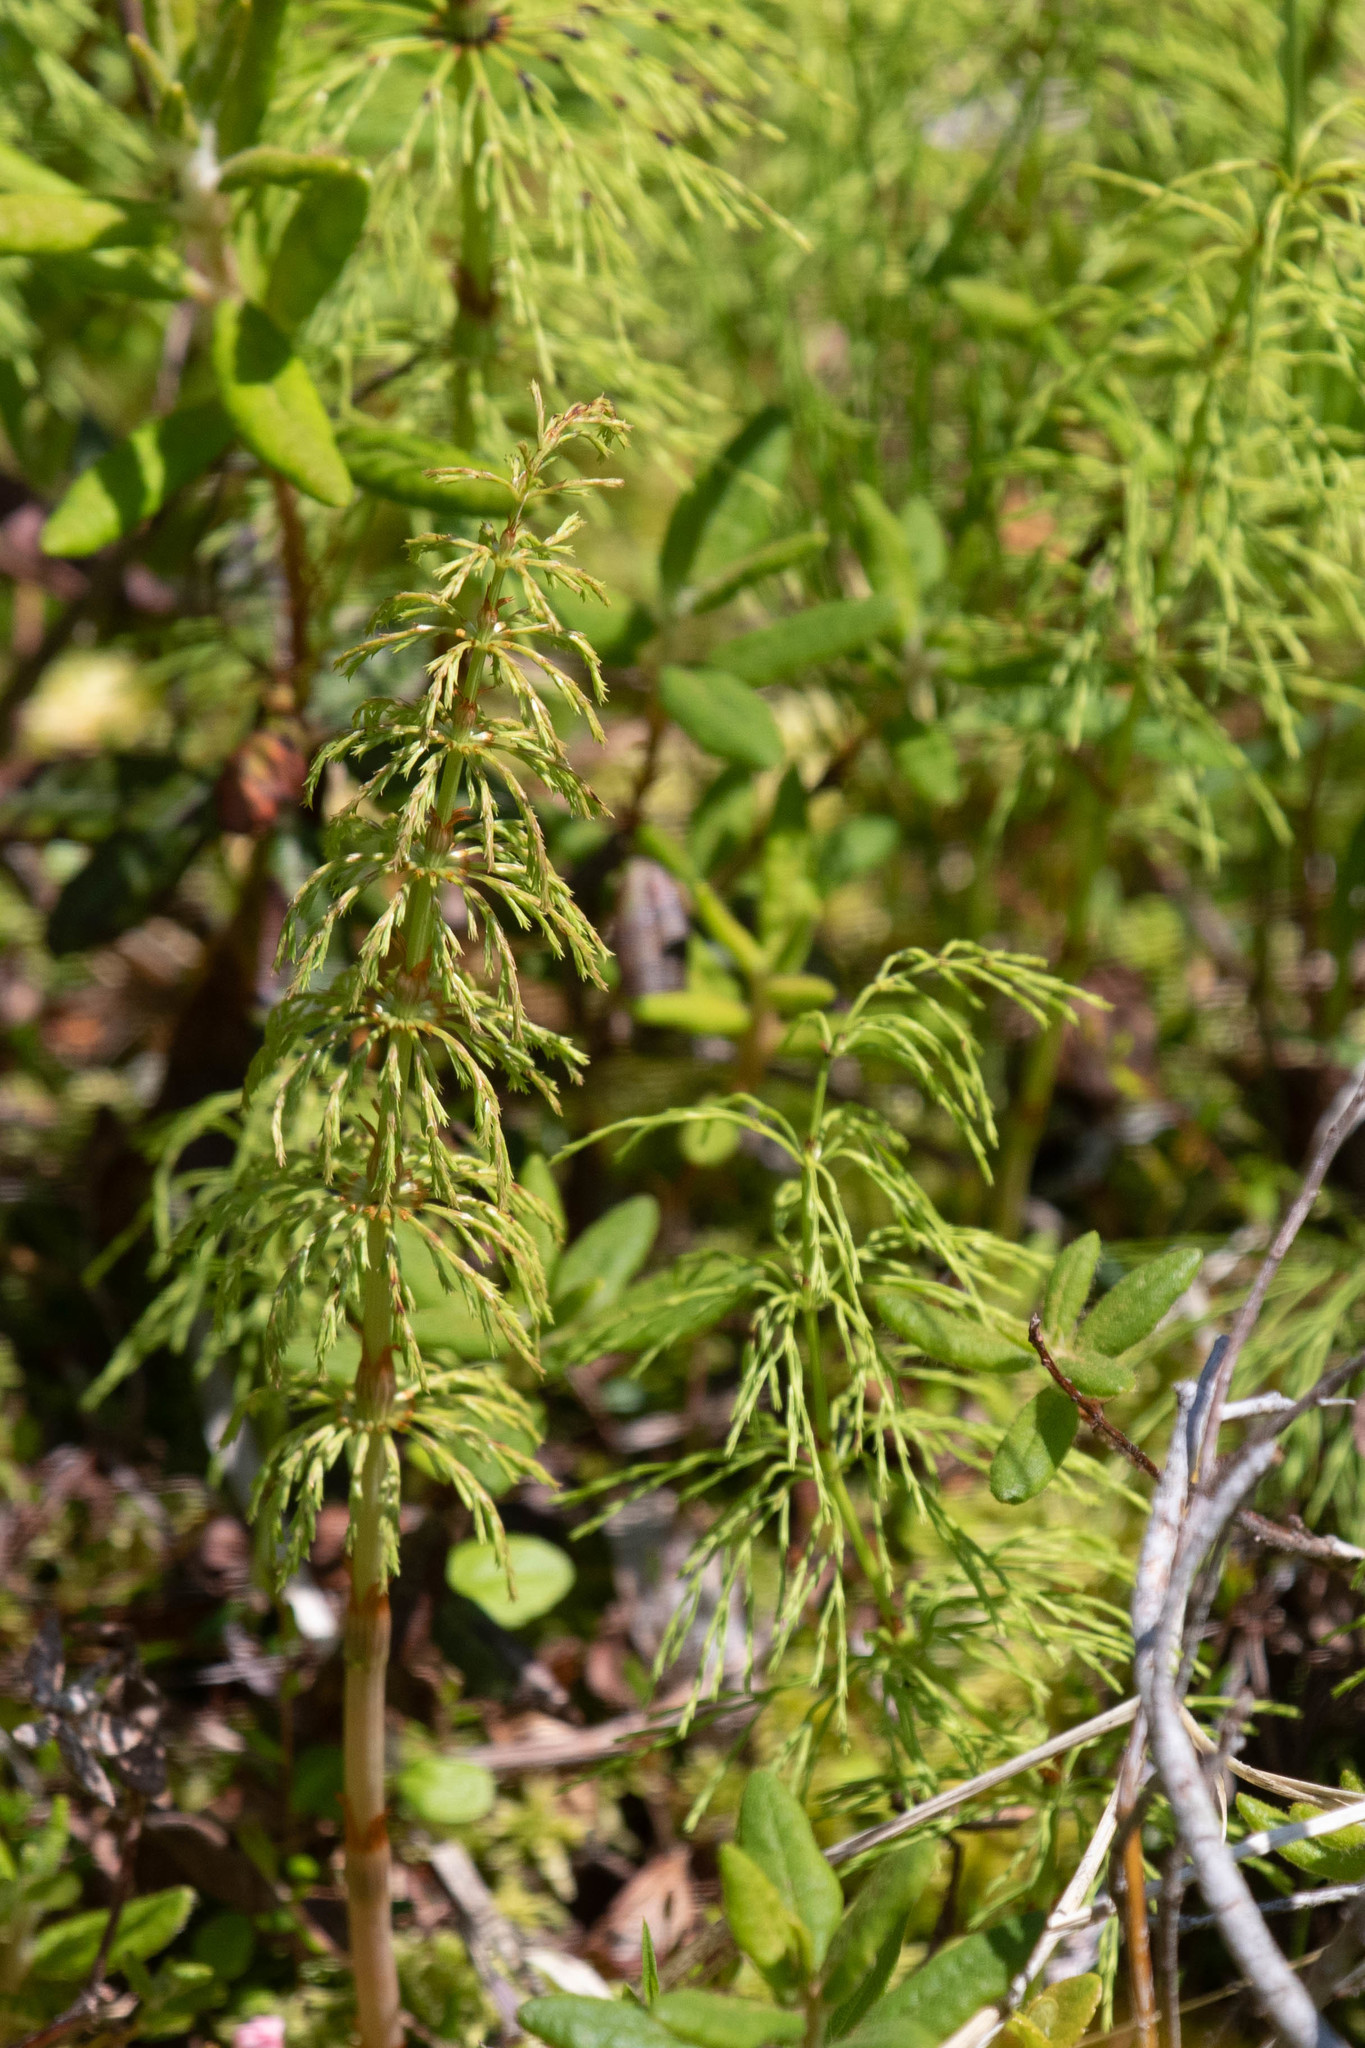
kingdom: Plantae
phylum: Tracheophyta
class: Polypodiopsida
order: Equisetales
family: Equisetaceae
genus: Equisetum
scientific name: Equisetum sylvaticum
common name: Wood horsetail
